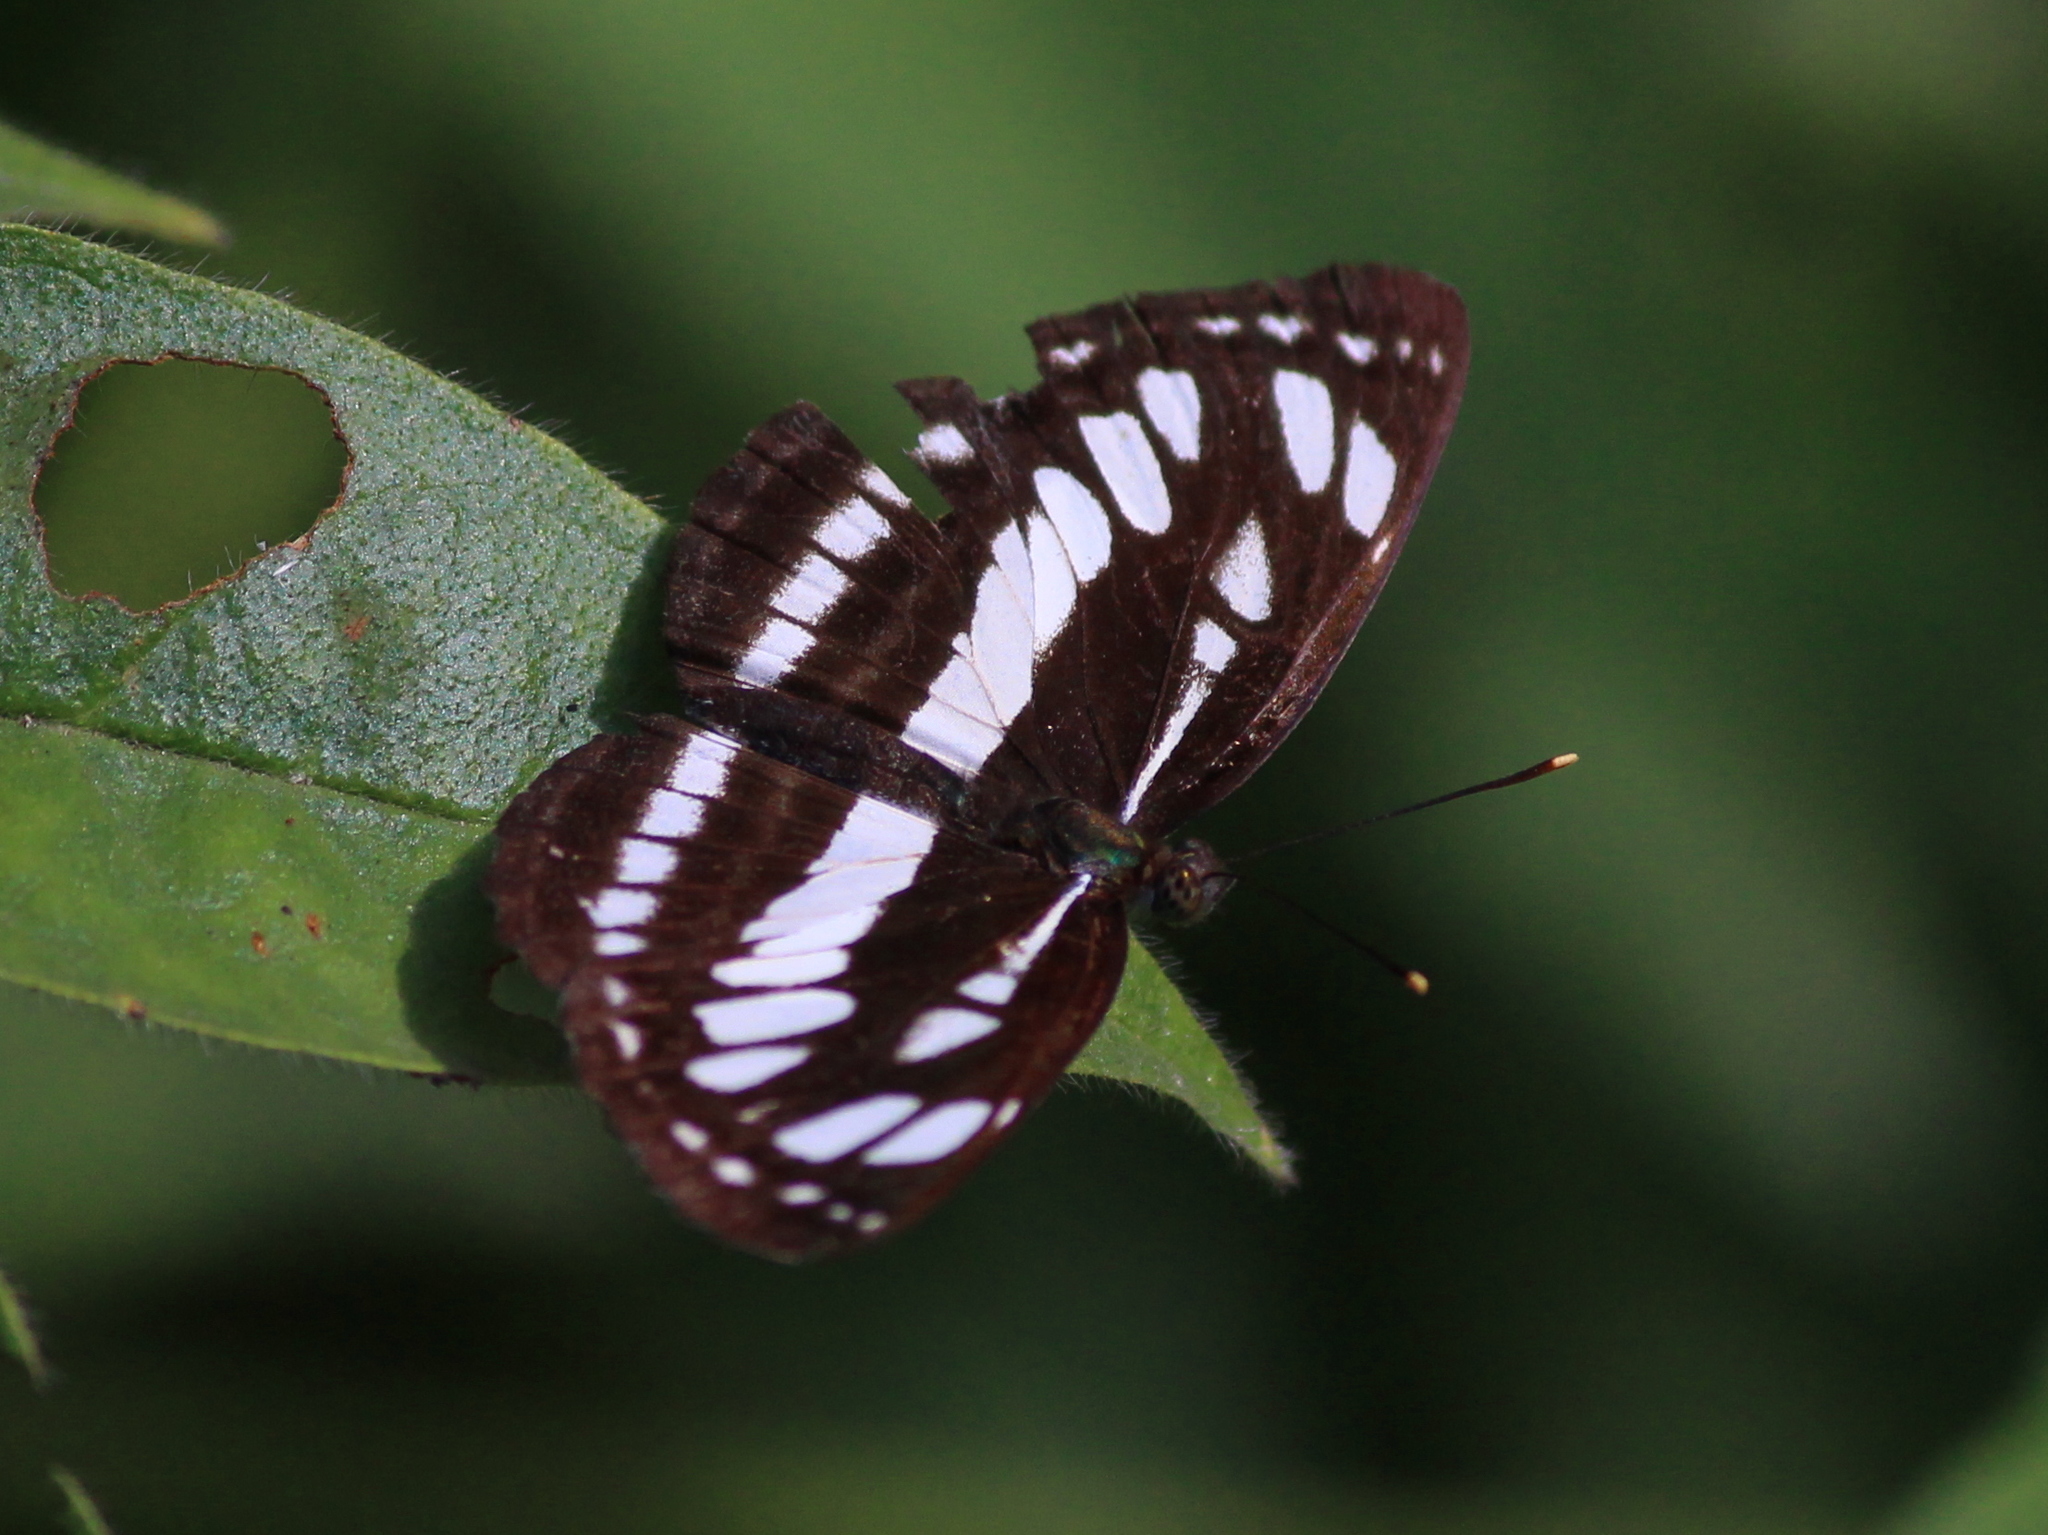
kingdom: Animalia
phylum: Arthropoda
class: Insecta
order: Lepidoptera
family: Nymphalidae
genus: Neptis
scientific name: Neptis hylas
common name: Common sailer
